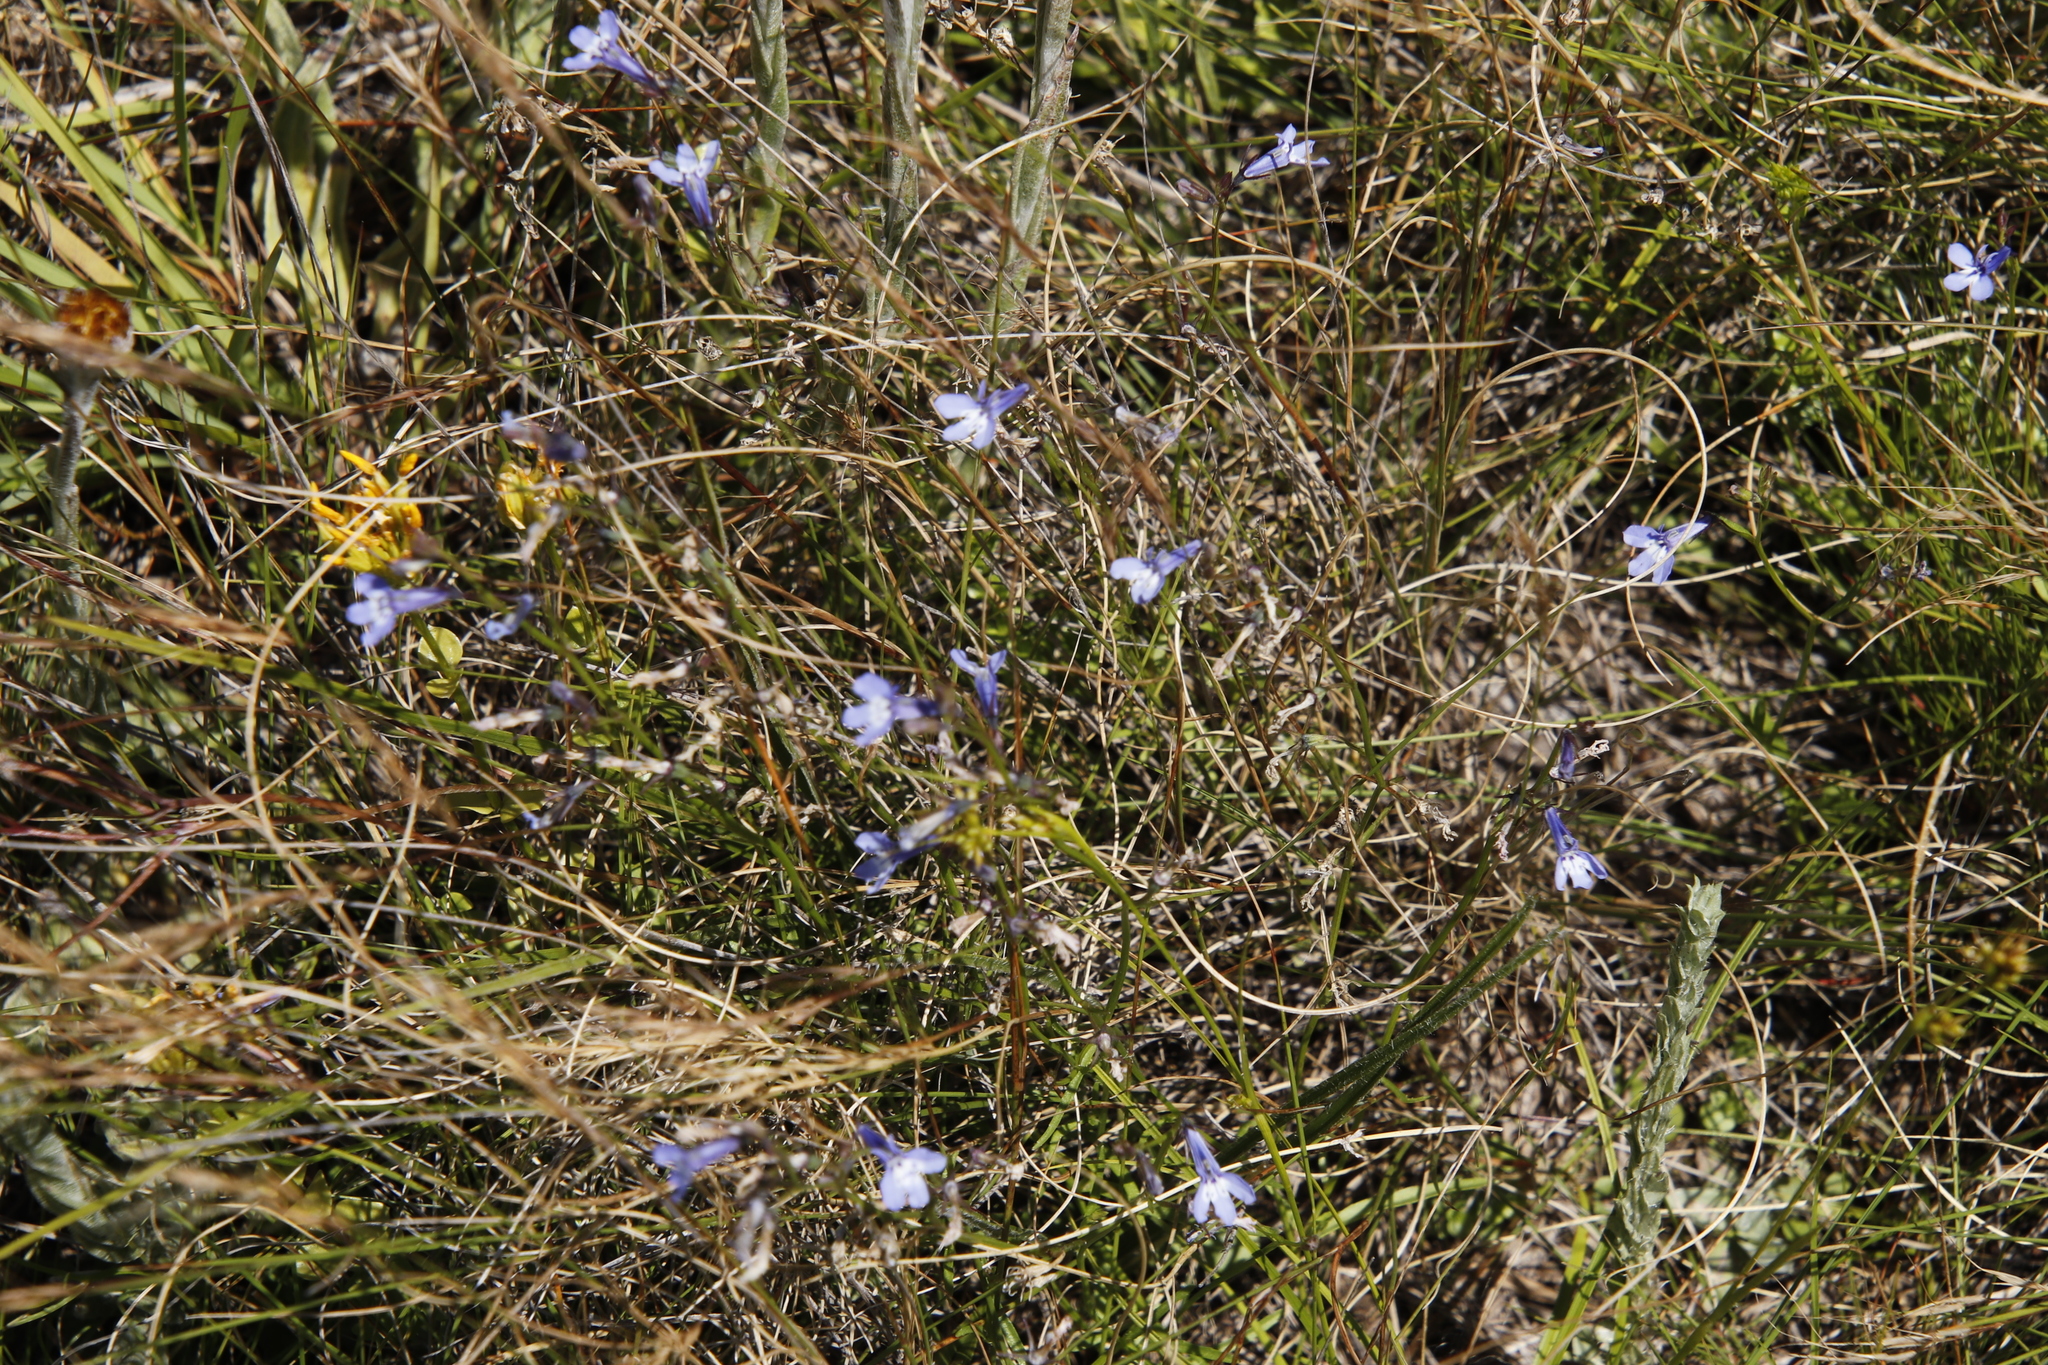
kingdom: Plantae
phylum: Tracheophyta
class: Magnoliopsida
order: Asterales
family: Campanulaceae
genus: Lobelia
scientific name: Lobelia flaccida
